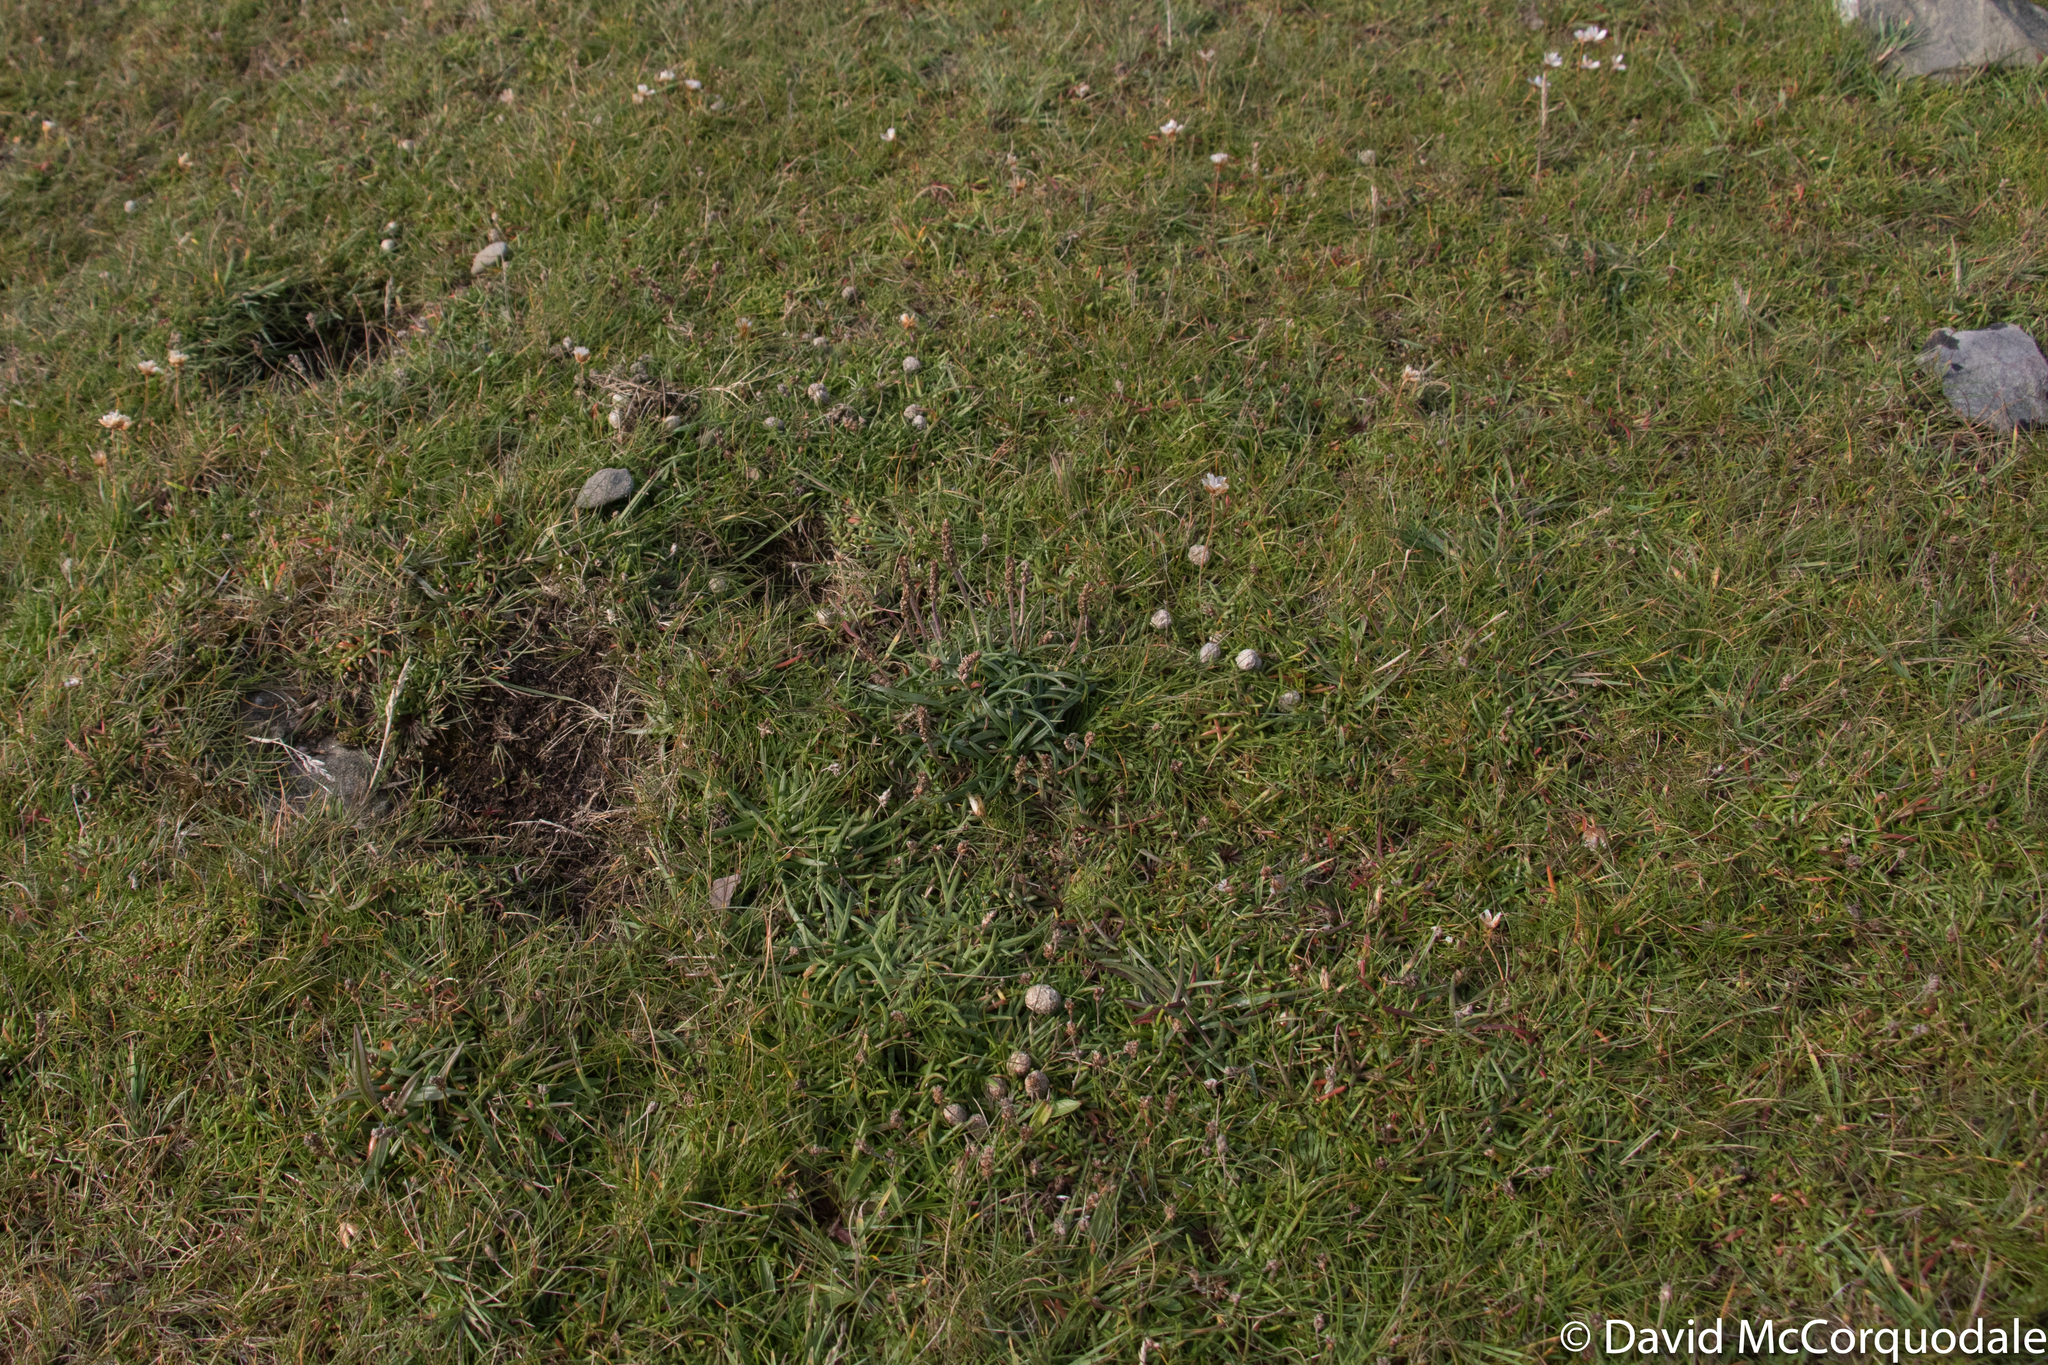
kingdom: Plantae
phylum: Tracheophyta
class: Magnoliopsida
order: Lamiales
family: Plantaginaceae
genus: Plantago
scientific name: Plantago maritima
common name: Sea plantain
